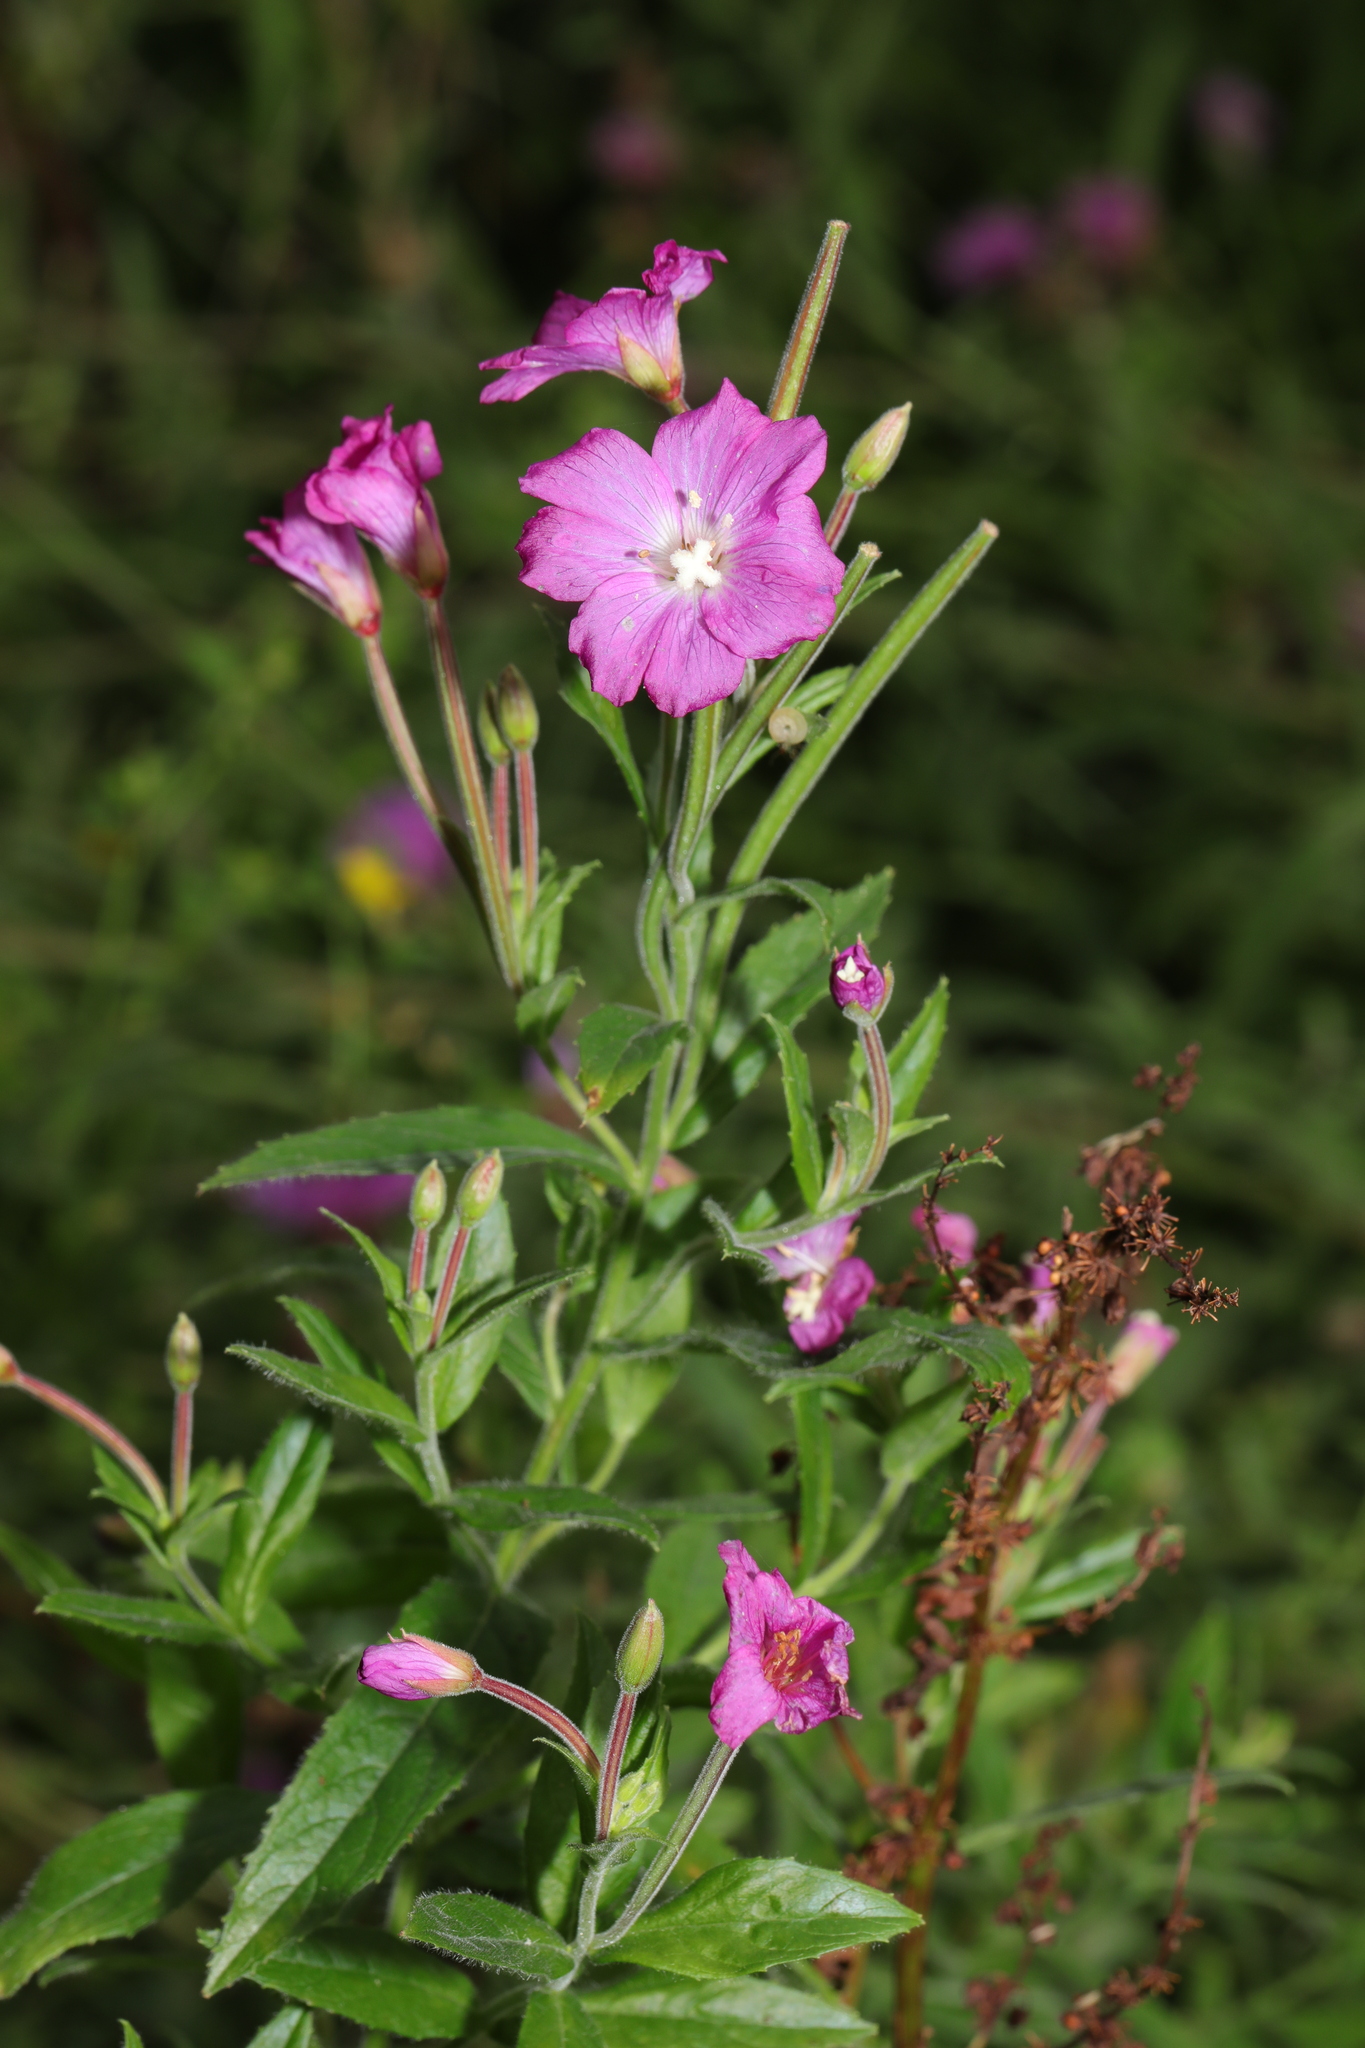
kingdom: Plantae
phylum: Tracheophyta
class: Magnoliopsida
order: Myrtales
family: Onagraceae
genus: Epilobium
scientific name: Epilobium hirsutum
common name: Great willowherb
